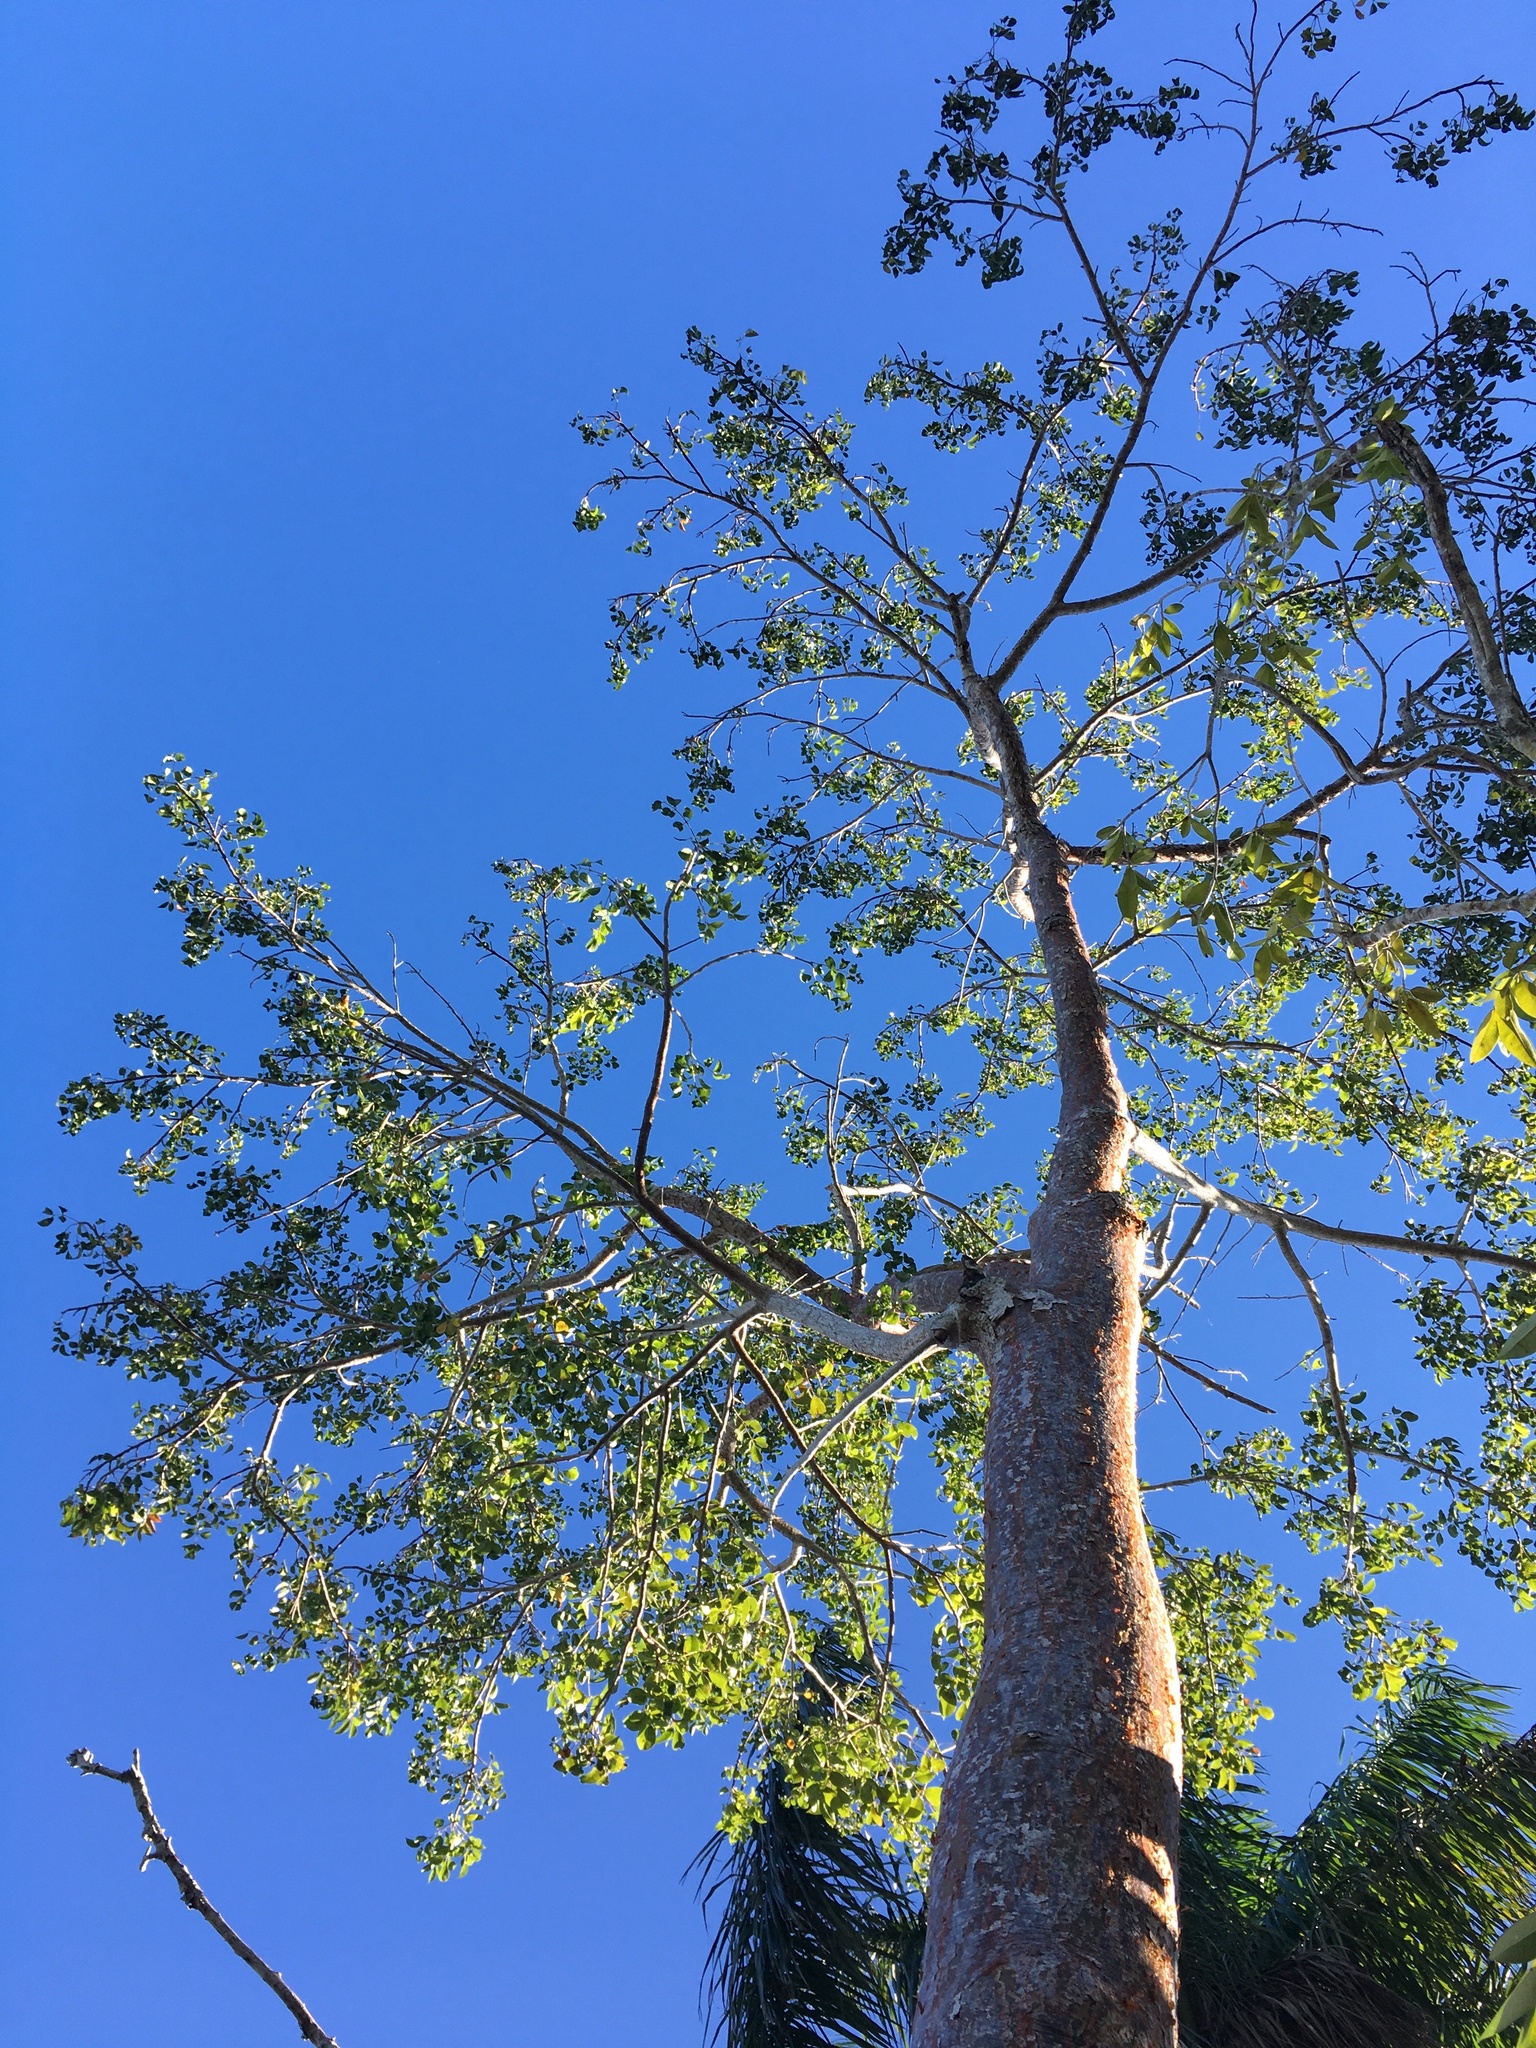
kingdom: Plantae
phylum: Tracheophyta
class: Magnoliopsida
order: Sapindales
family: Burseraceae
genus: Bursera
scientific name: Bursera simaruba
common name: Turpentine tree
